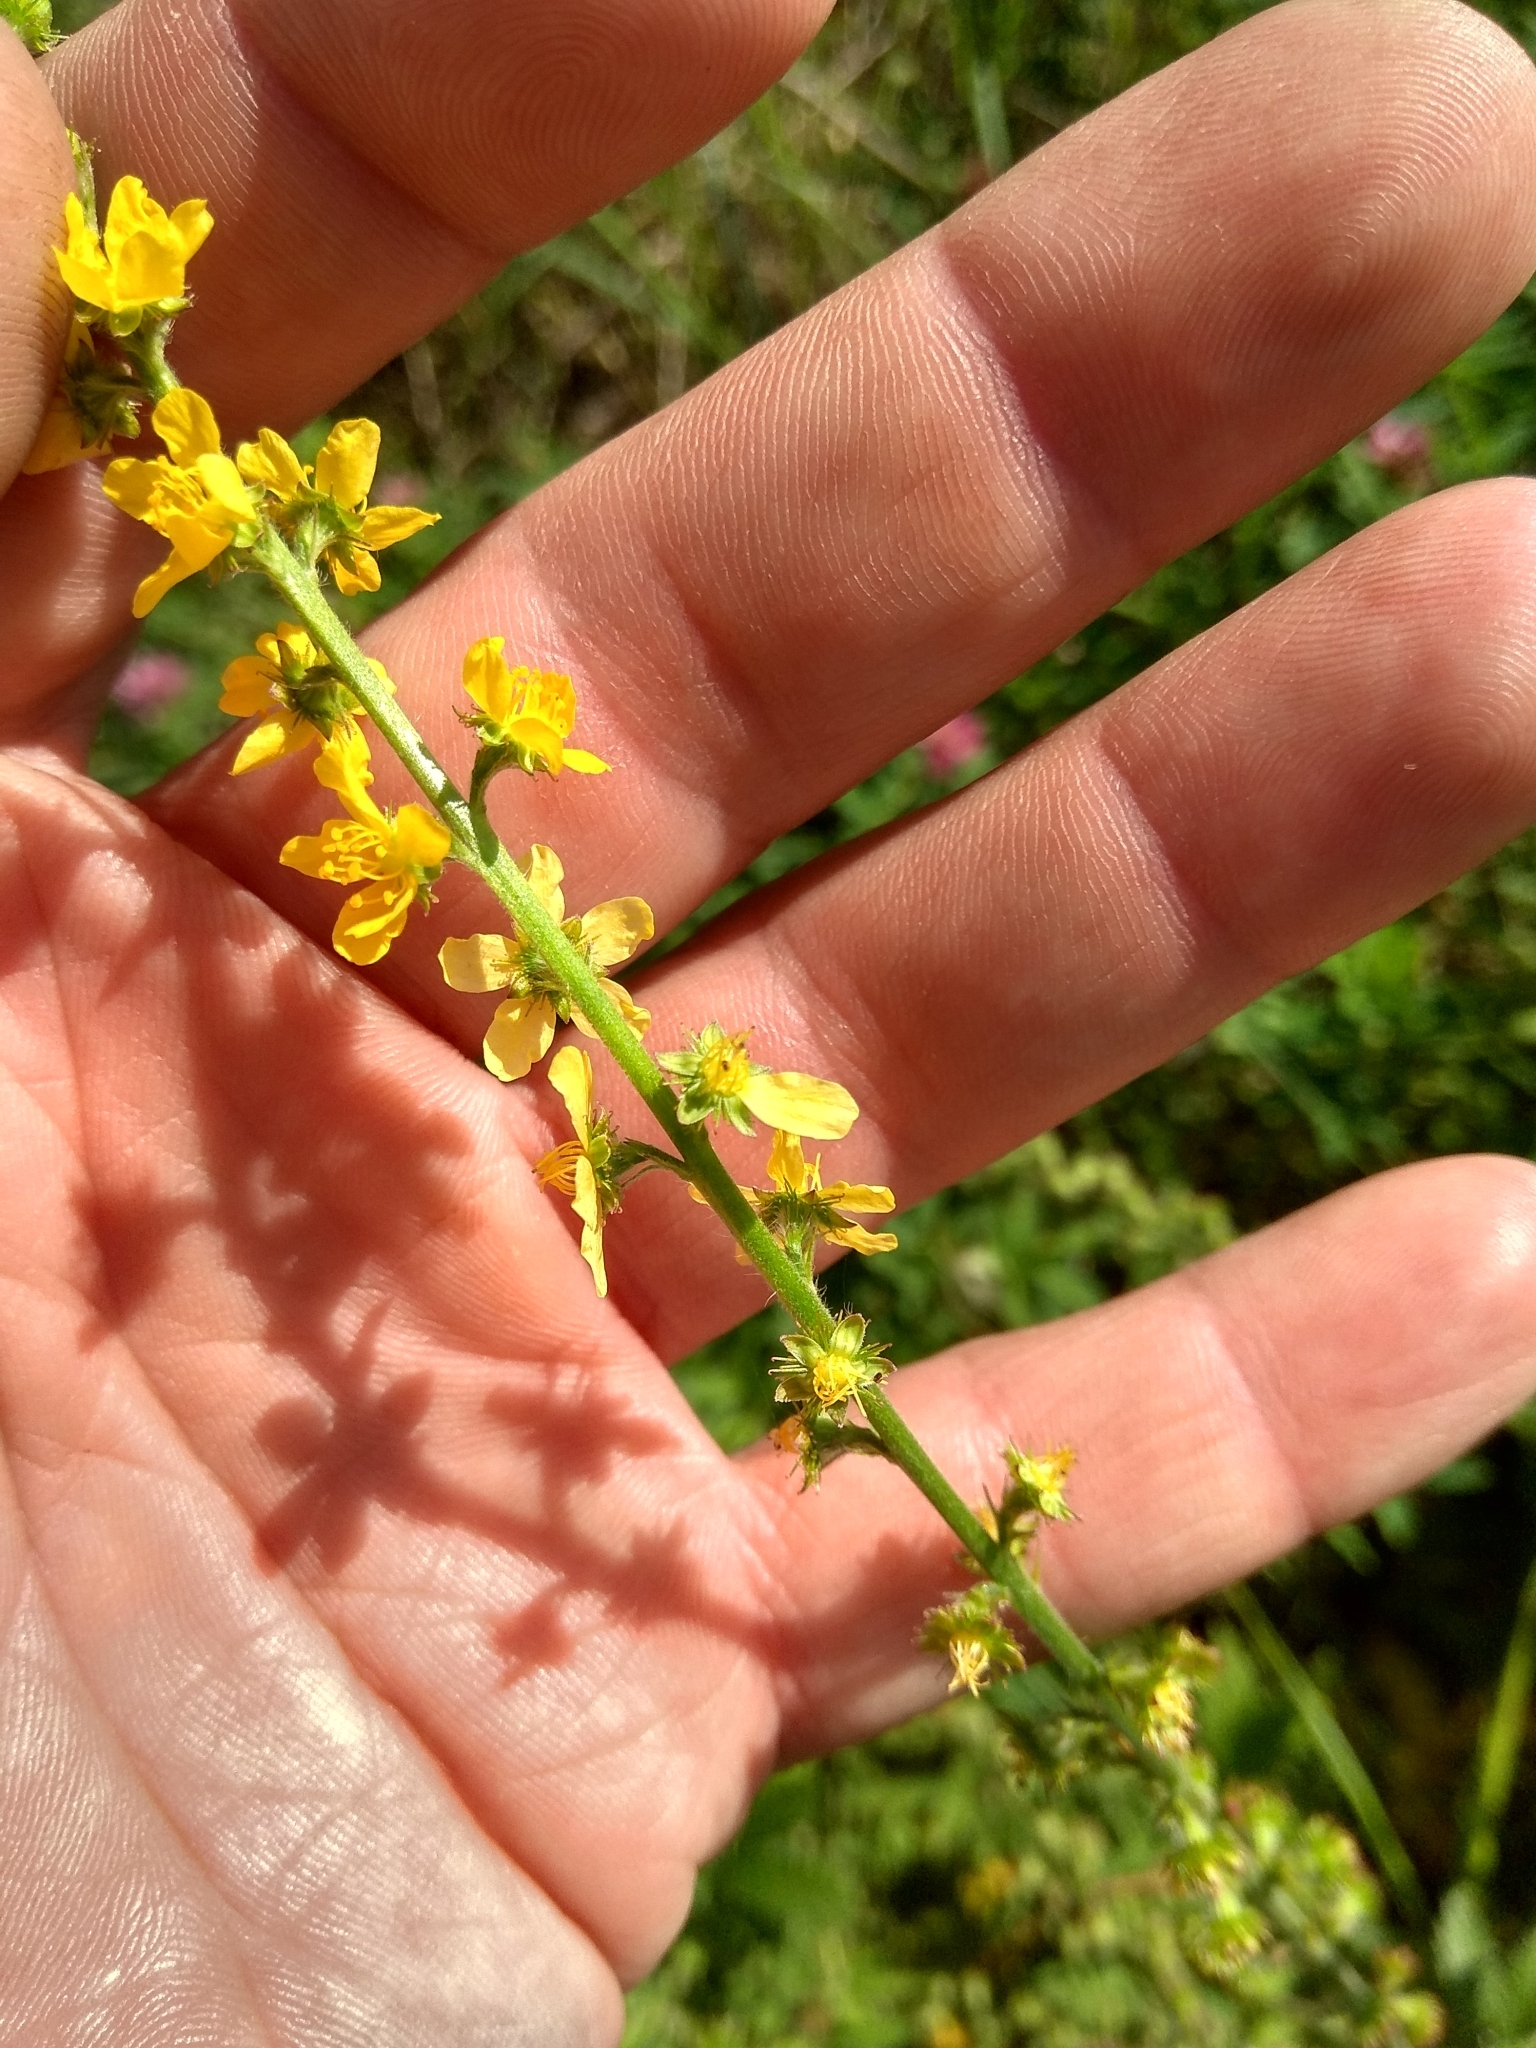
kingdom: Plantae
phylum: Tracheophyta
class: Magnoliopsida
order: Rosales
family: Rosaceae
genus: Agrimonia
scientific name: Agrimonia eupatoria
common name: Agrimony
